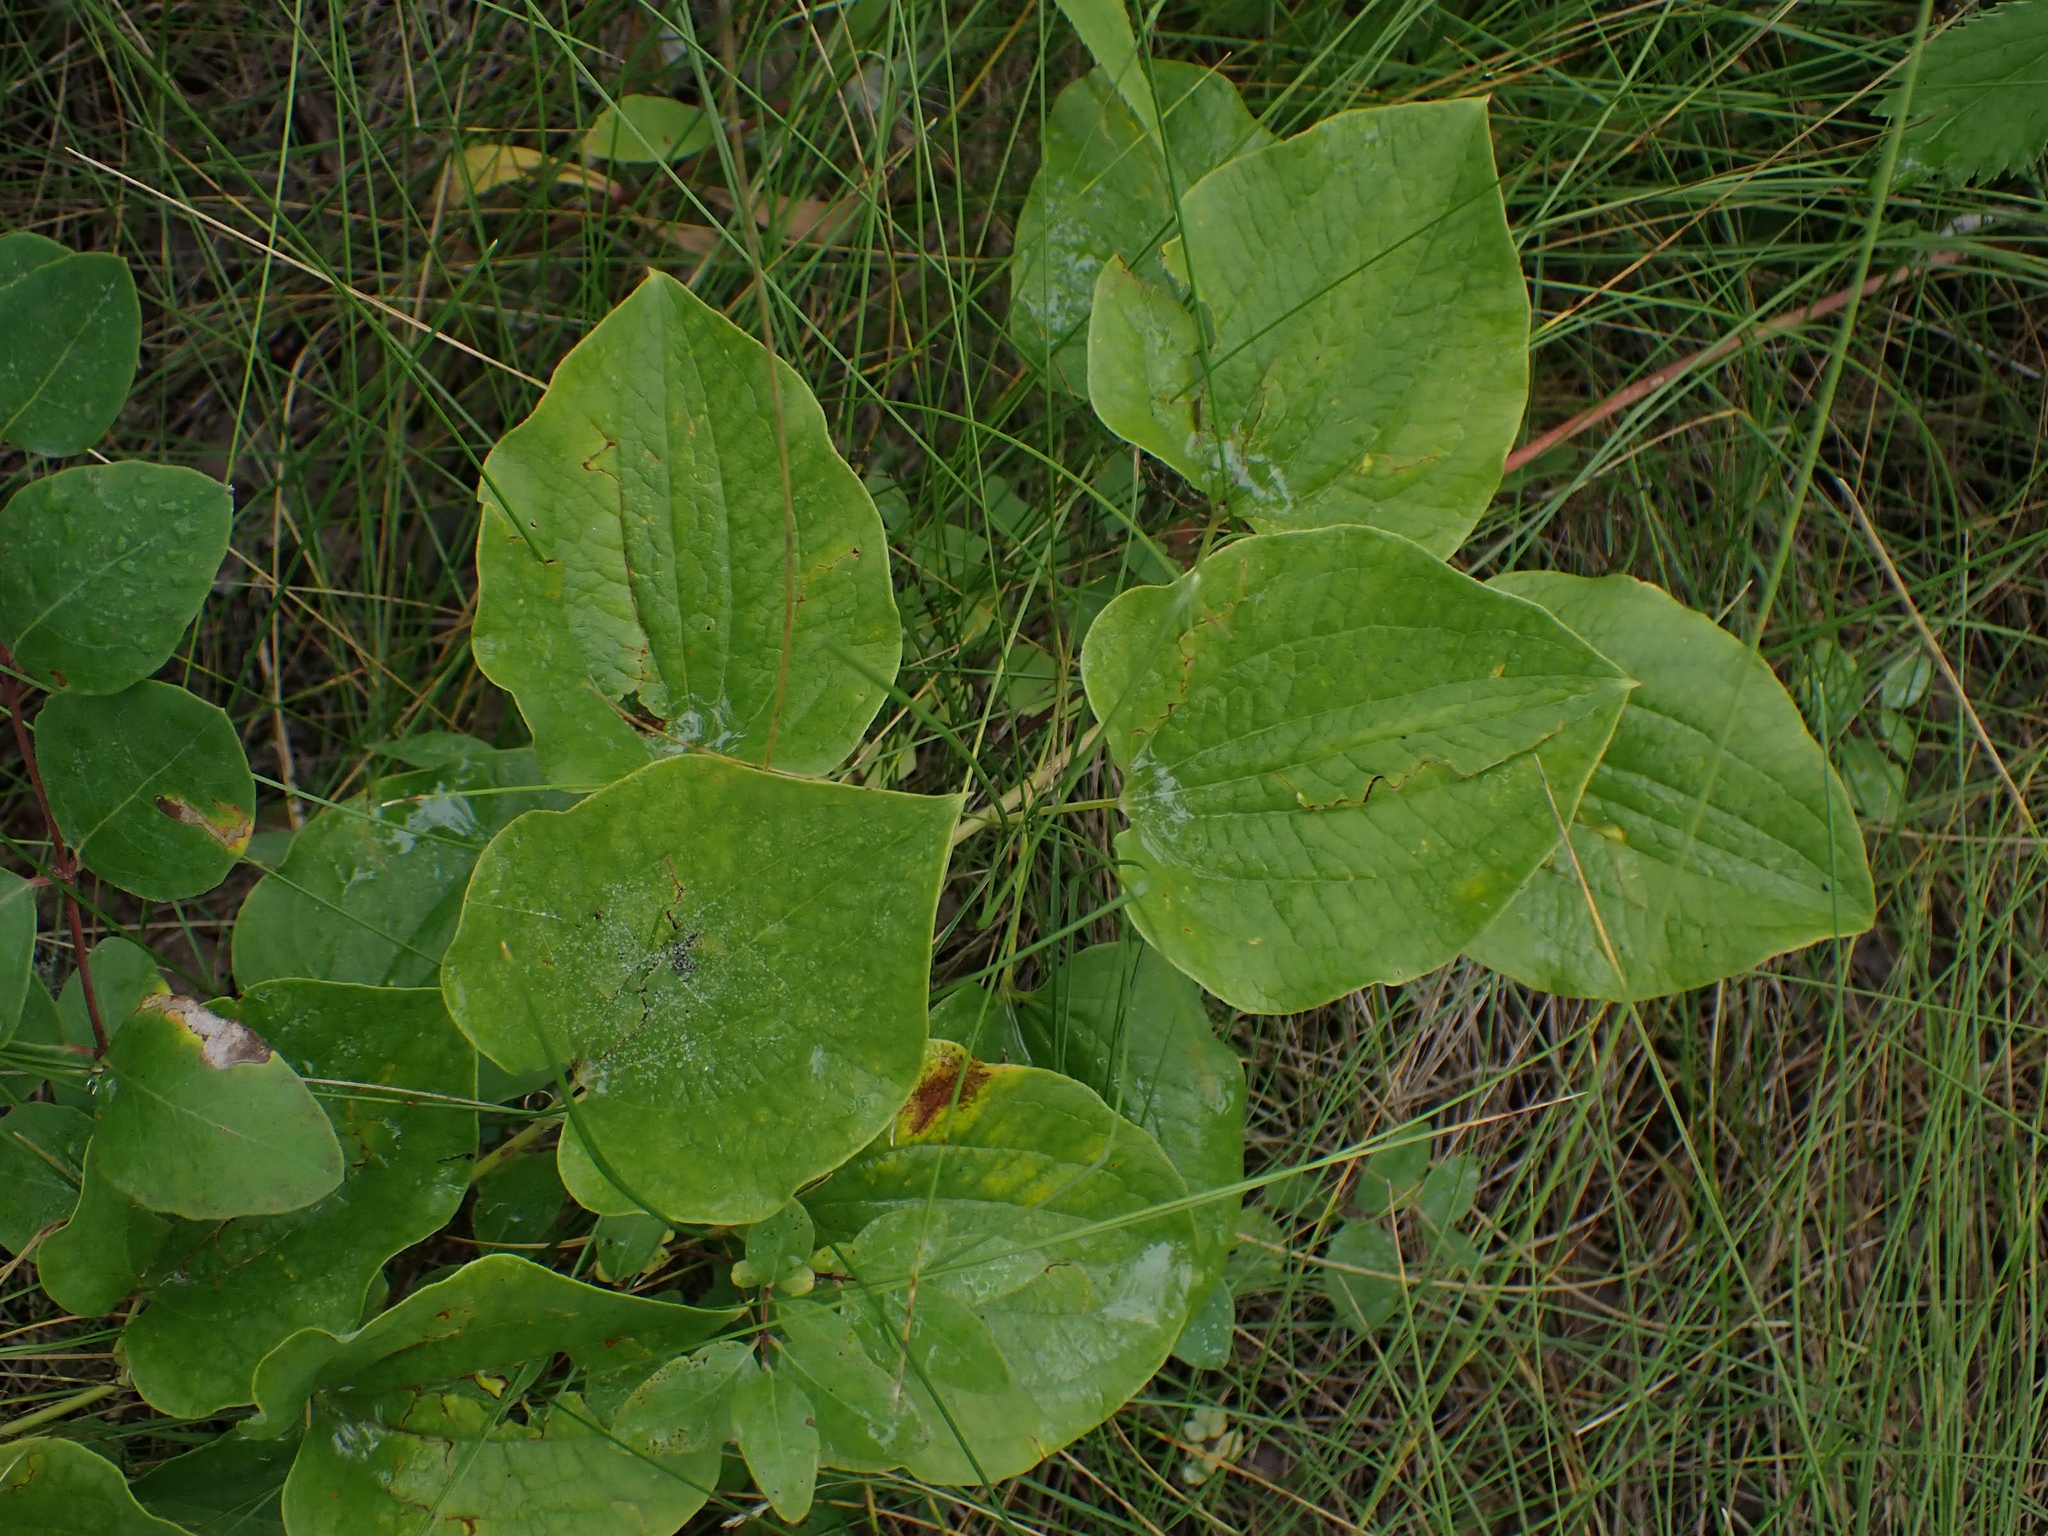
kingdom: Plantae
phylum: Tracheophyta
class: Liliopsida
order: Liliales
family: Smilacaceae
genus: Smilax
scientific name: Smilax lasioneura
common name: Blue ridge carrionflower
